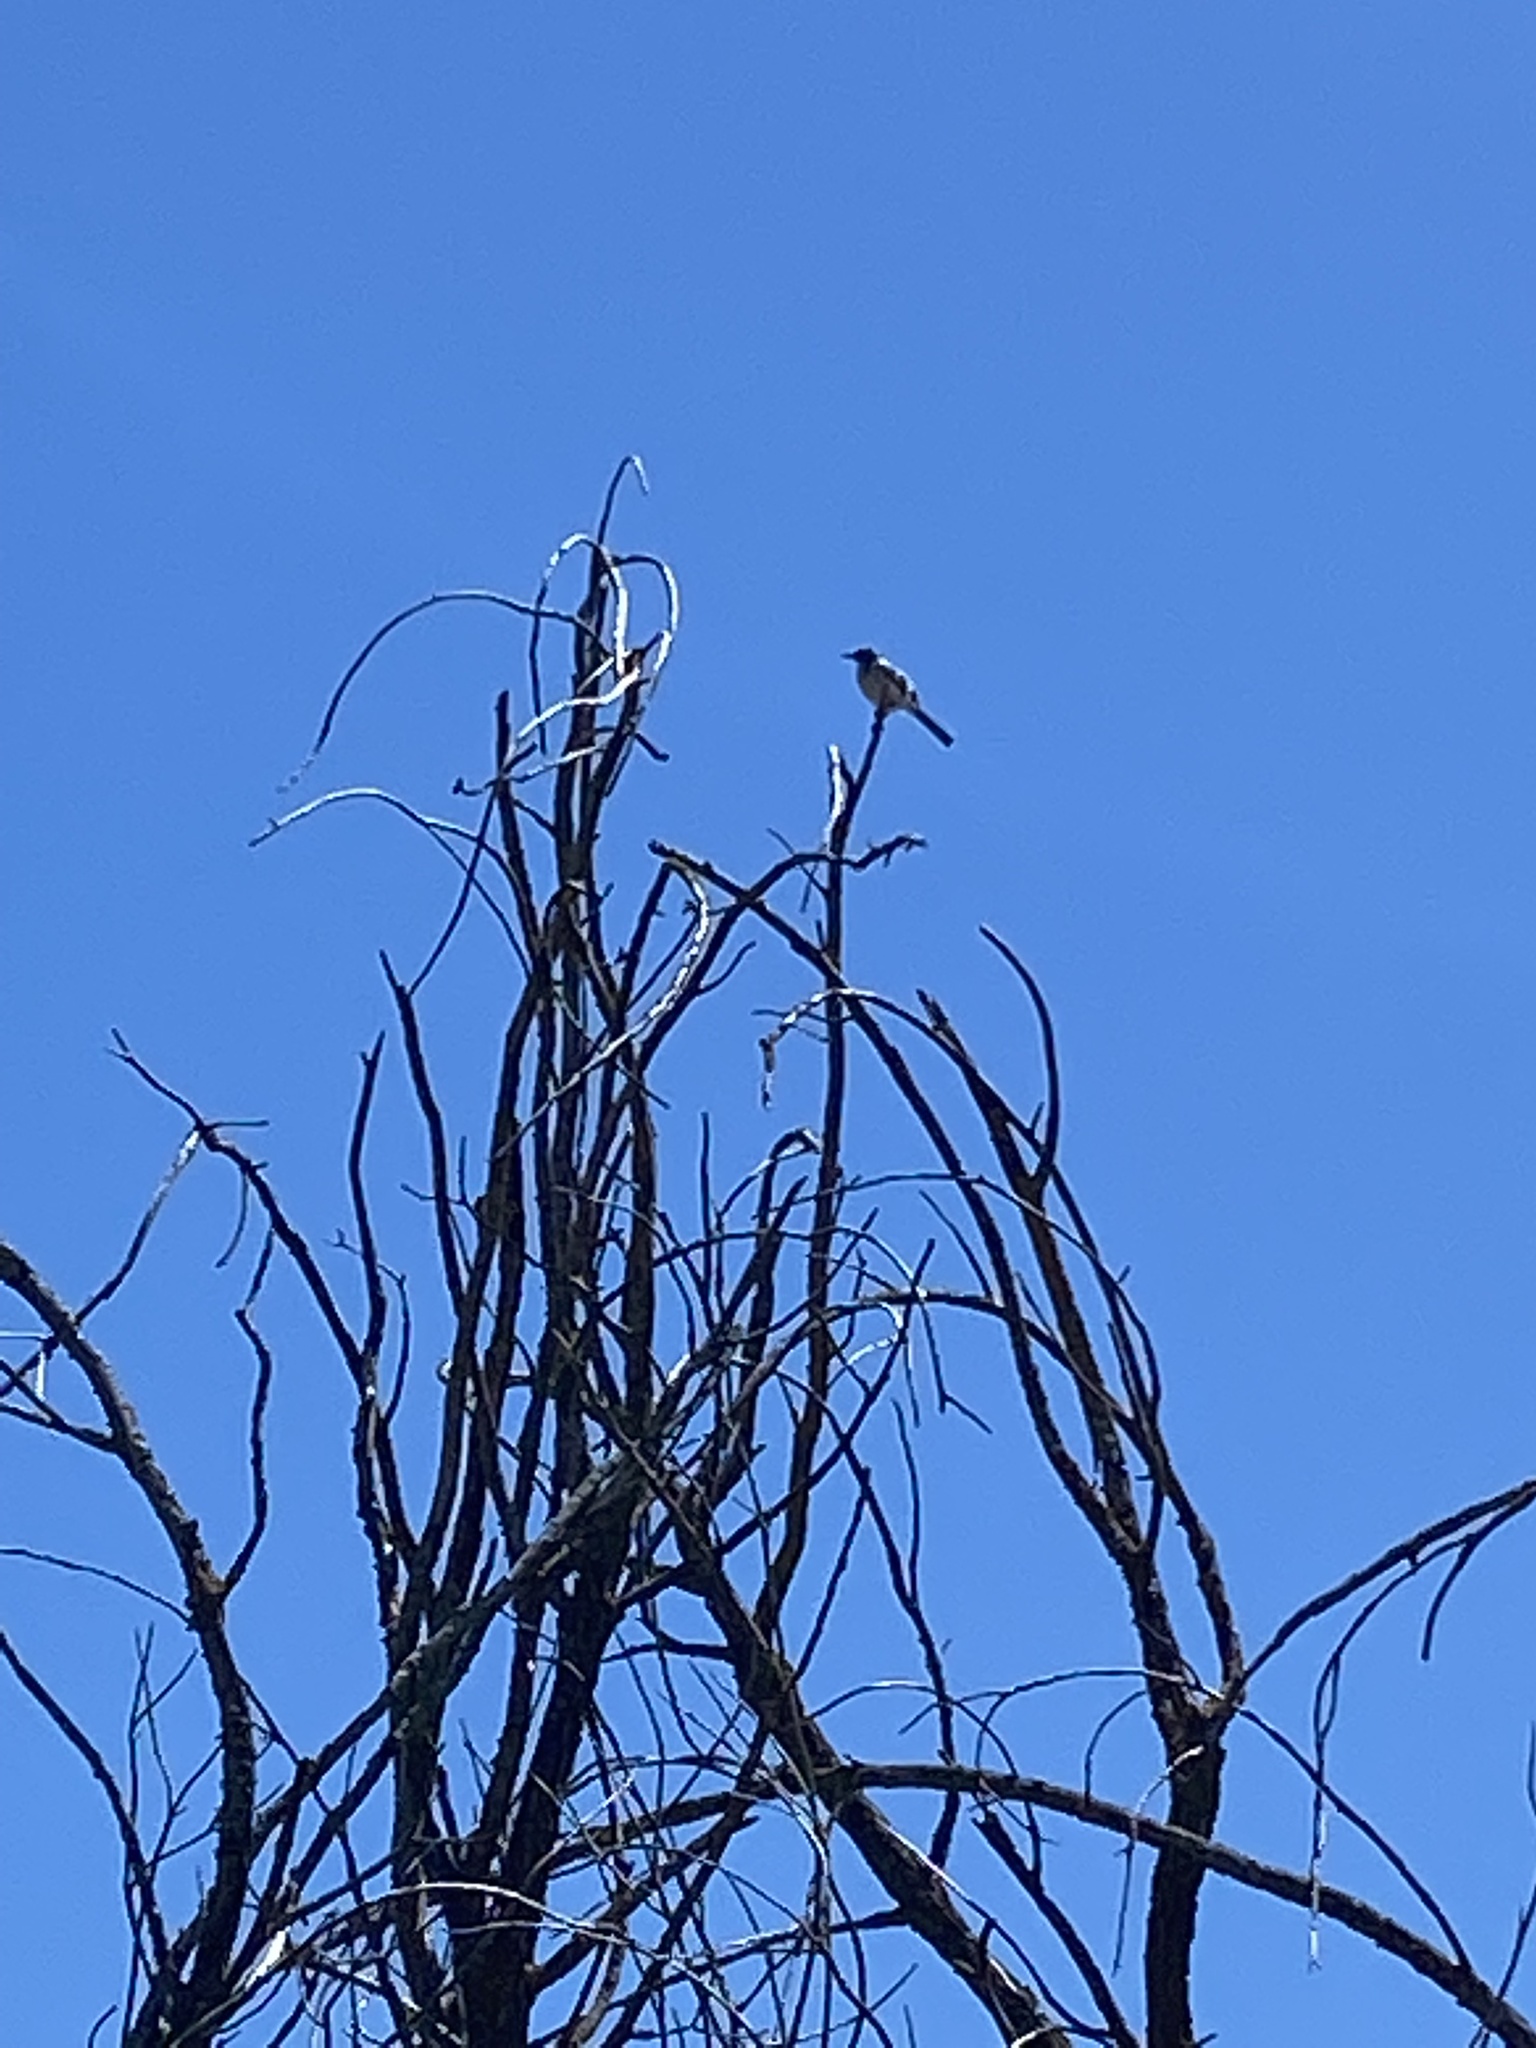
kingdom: Animalia
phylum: Chordata
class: Aves
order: Passeriformes
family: Corvidae
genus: Aphelocoma
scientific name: Aphelocoma californica
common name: California scrub-jay
